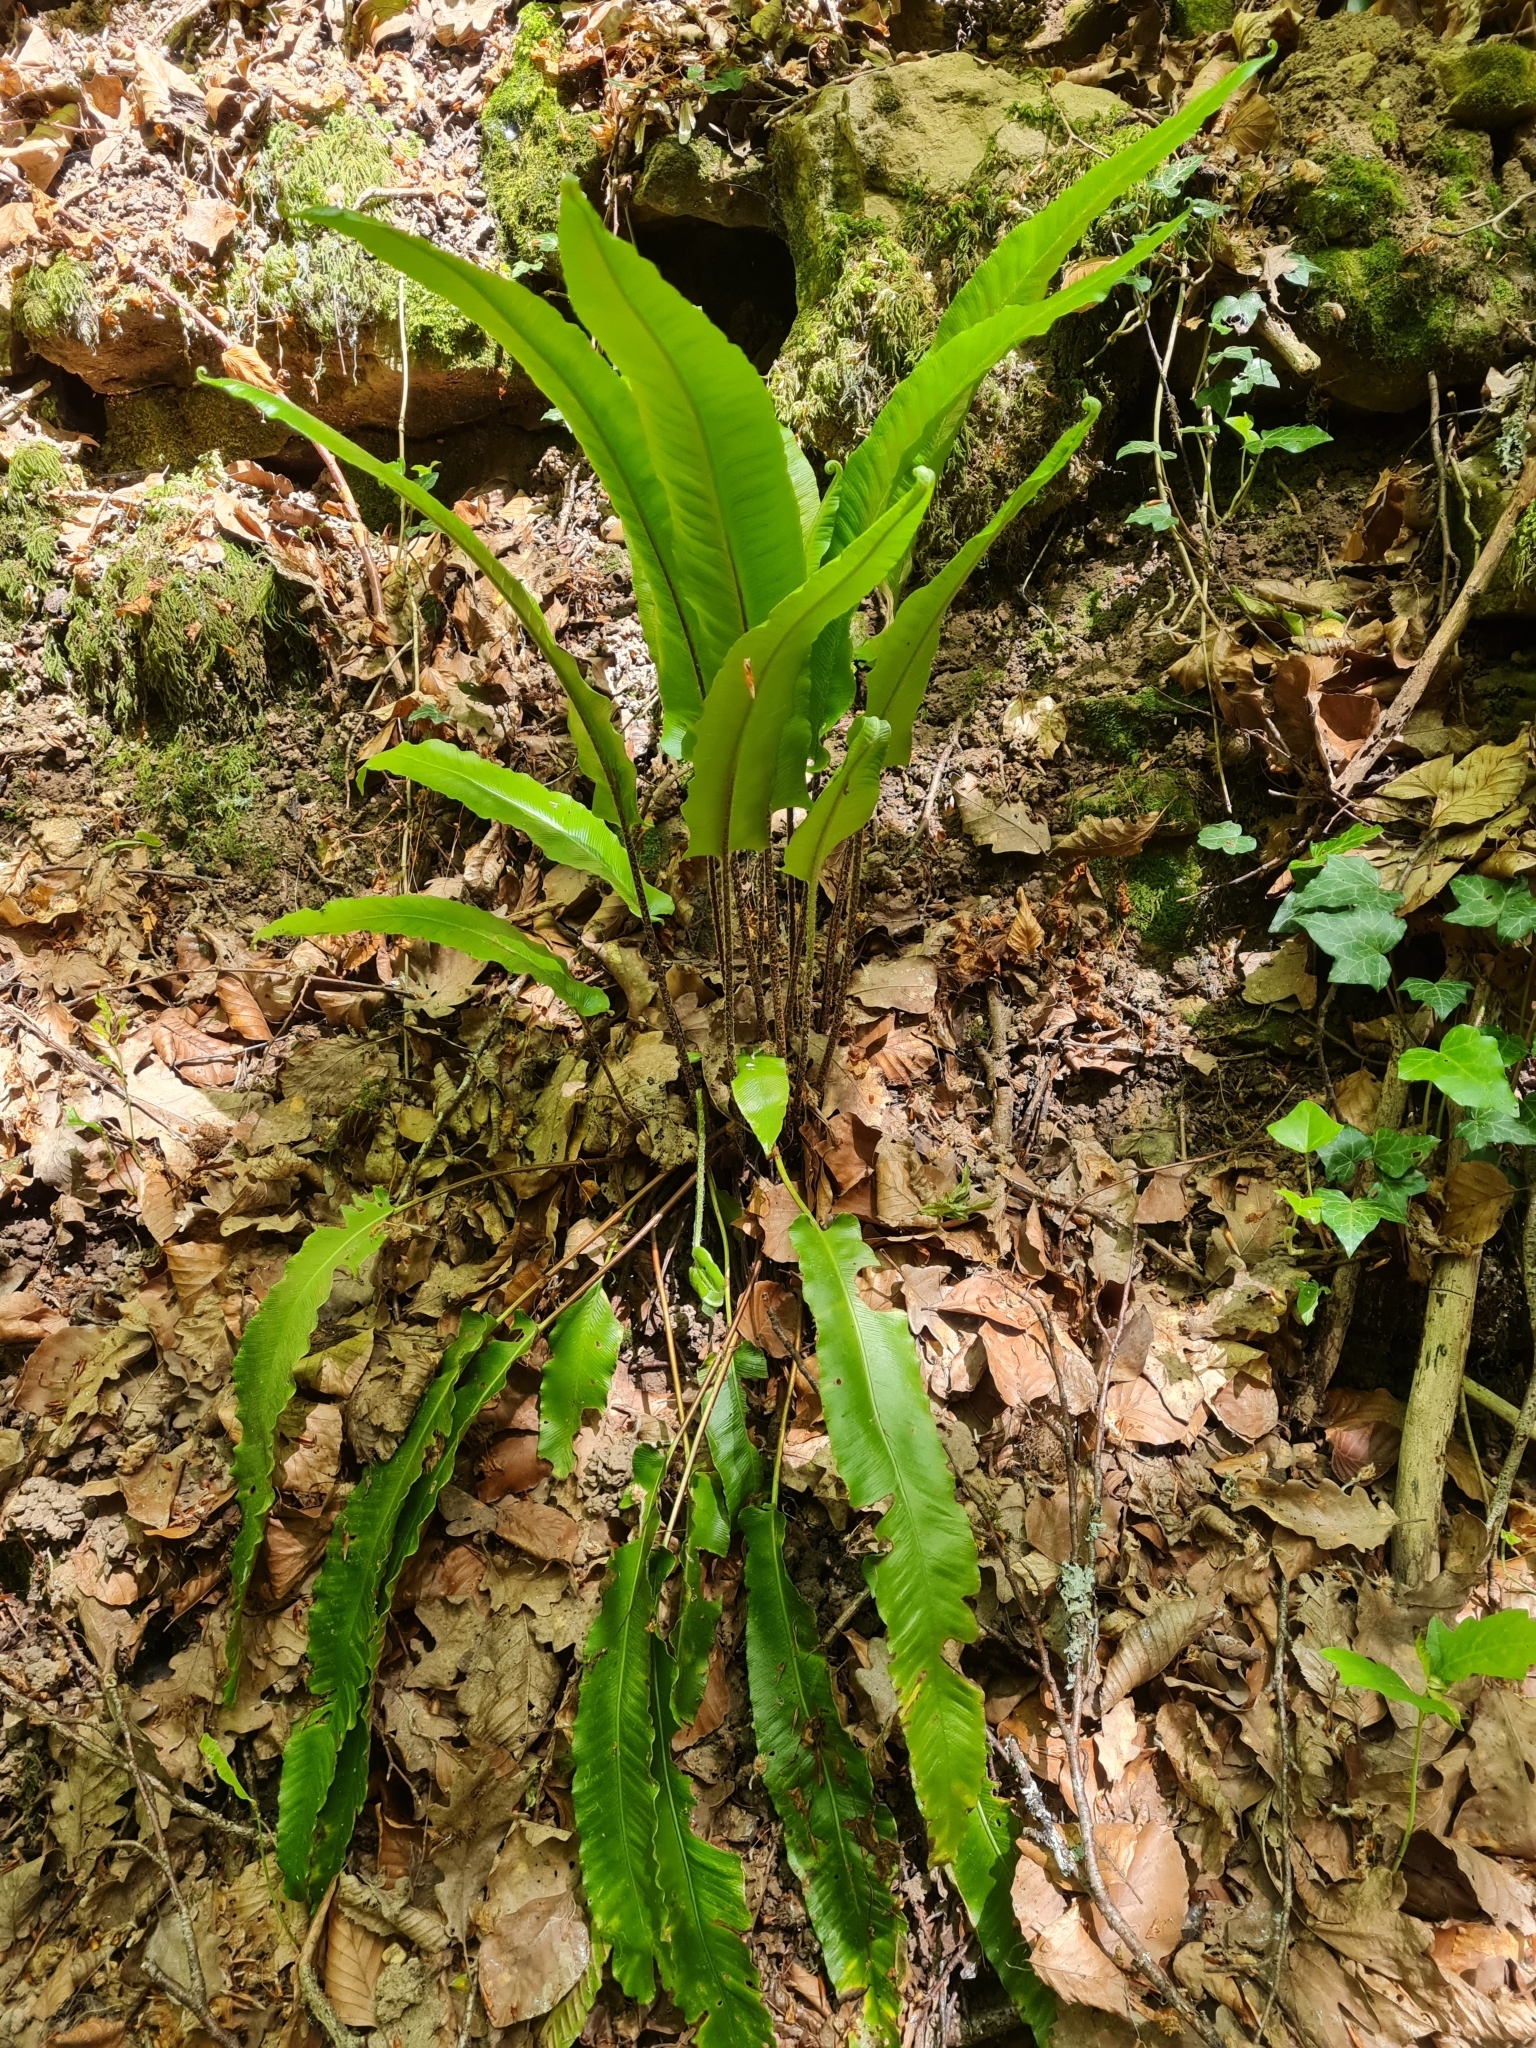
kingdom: Plantae
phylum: Tracheophyta
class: Polypodiopsida
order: Polypodiales
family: Aspleniaceae
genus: Asplenium
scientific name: Asplenium scolopendrium
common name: Hart's-tongue fern
